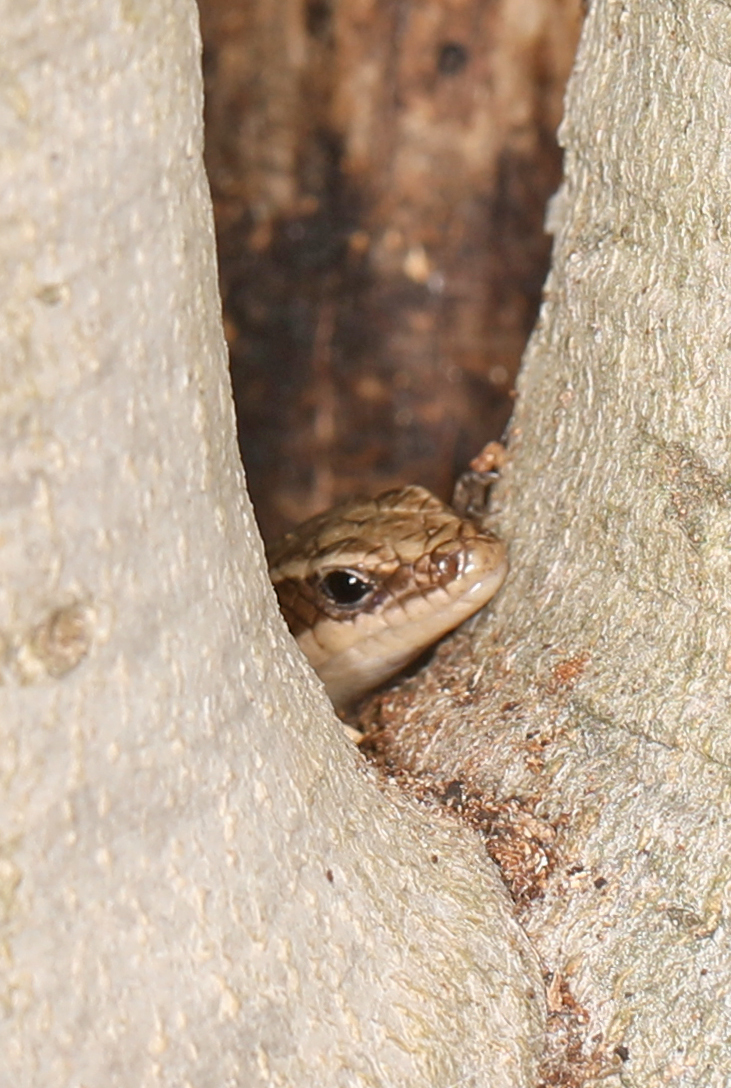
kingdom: Animalia
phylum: Chordata
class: Squamata
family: Scincidae
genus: Plestiodon
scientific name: Plestiodon fasciatus
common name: Five-lined skink
